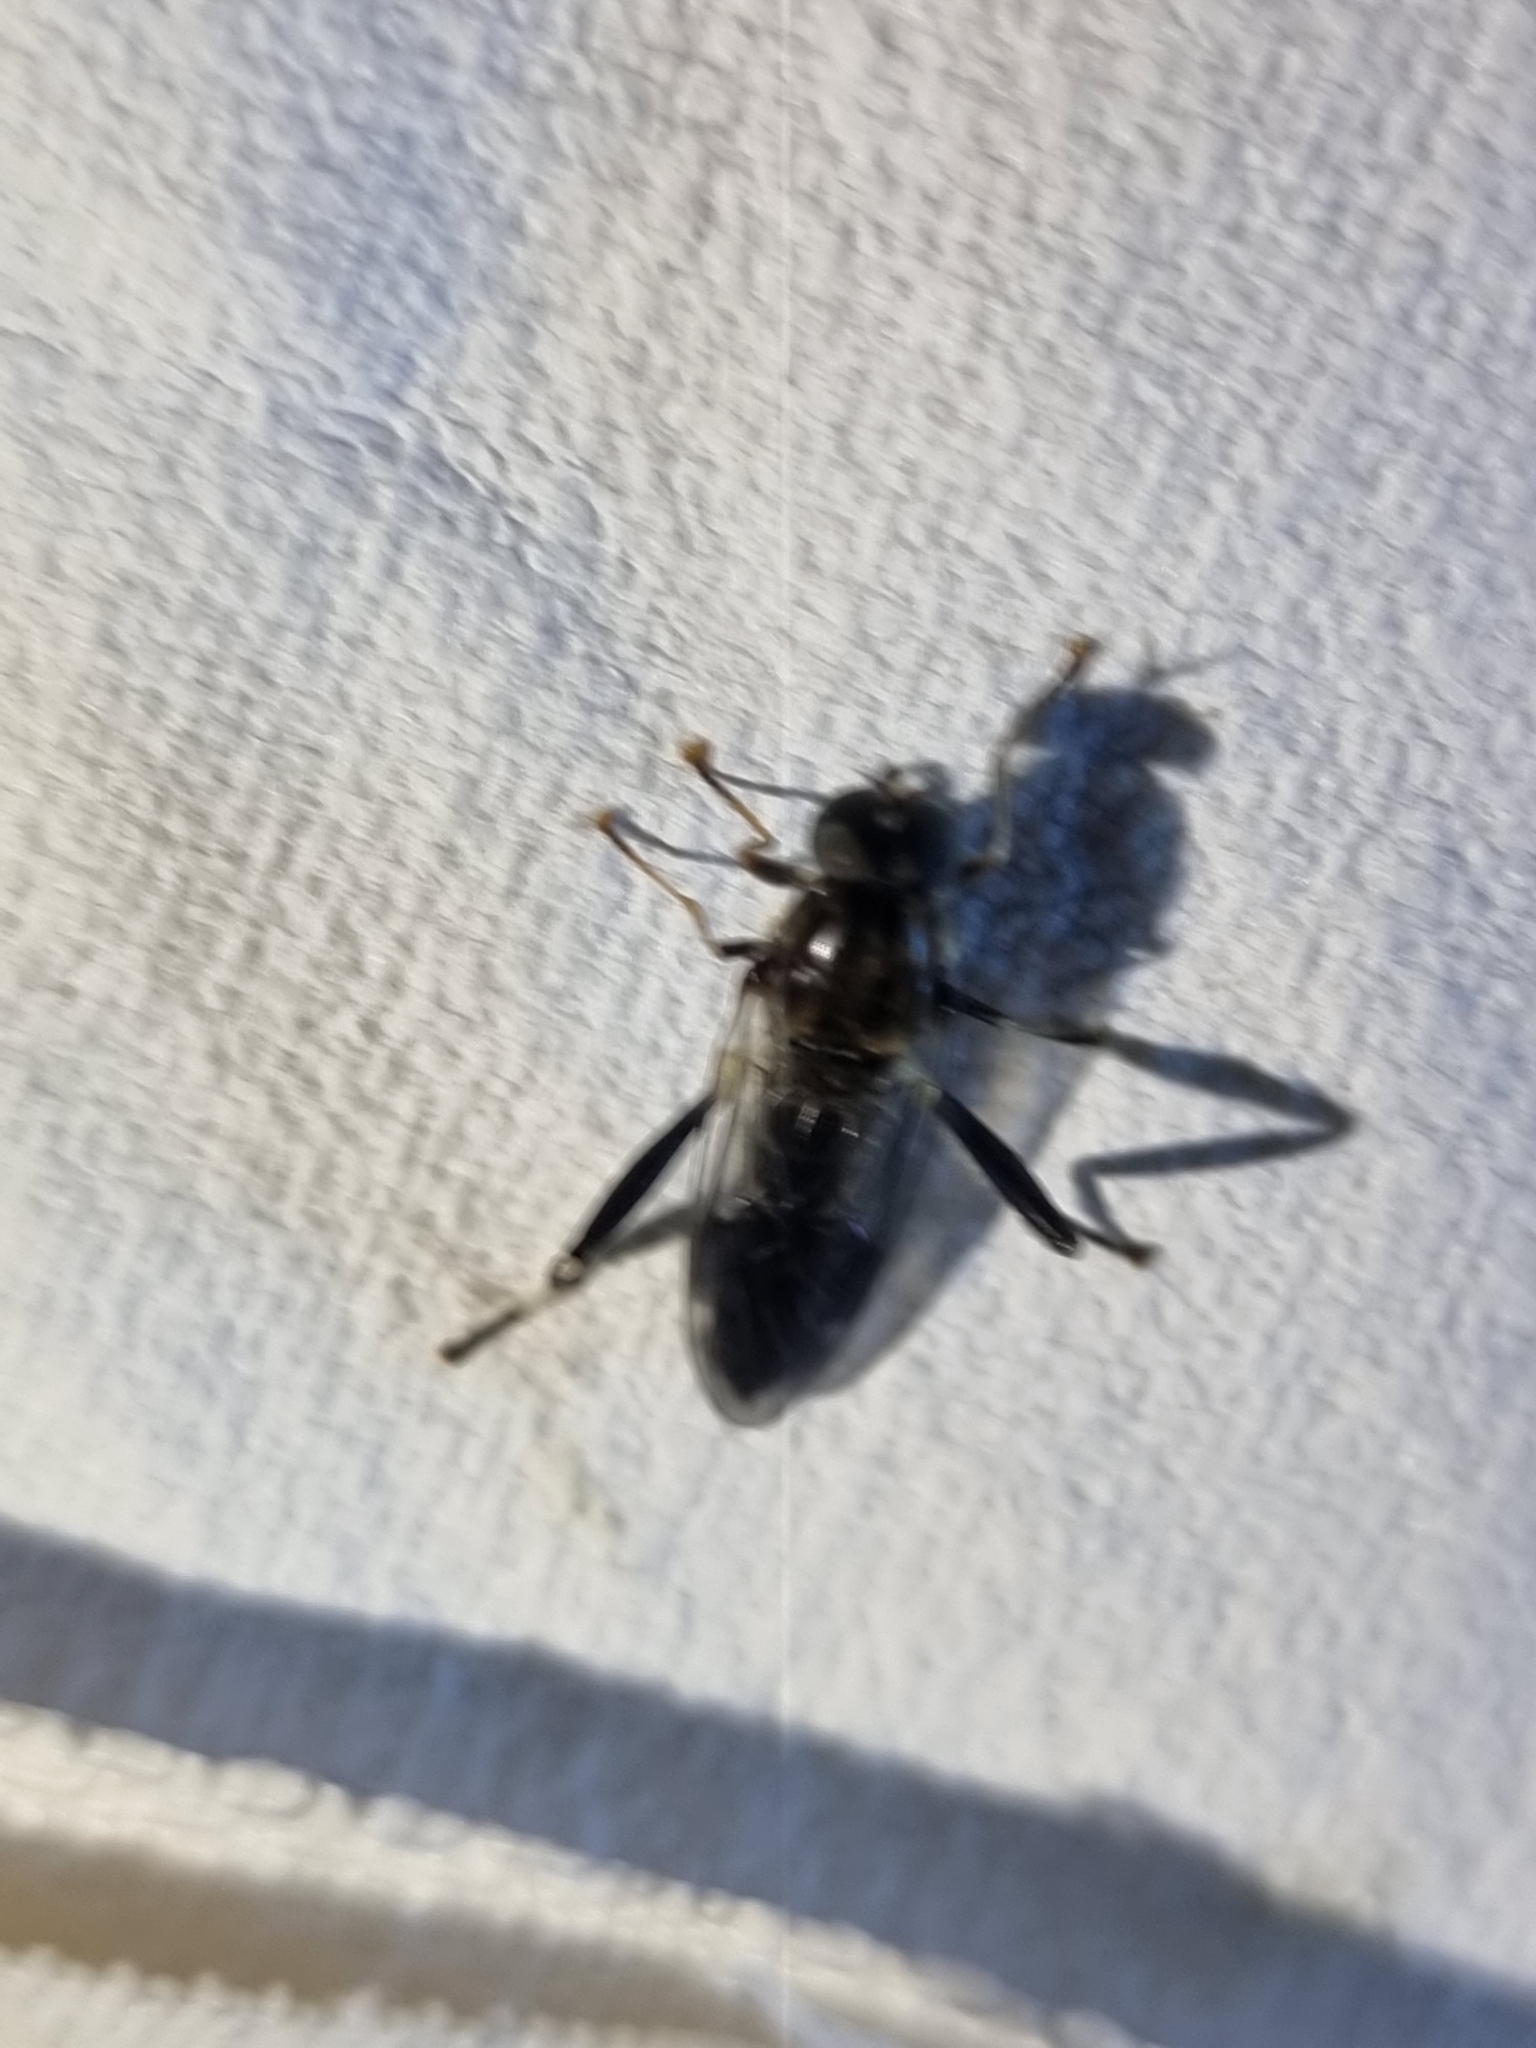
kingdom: Animalia
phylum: Arthropoda
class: Insecta
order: Diptera
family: Stratiomyidae
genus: Exaireta
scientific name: Exaireta spinigera
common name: Blue soldier fly
